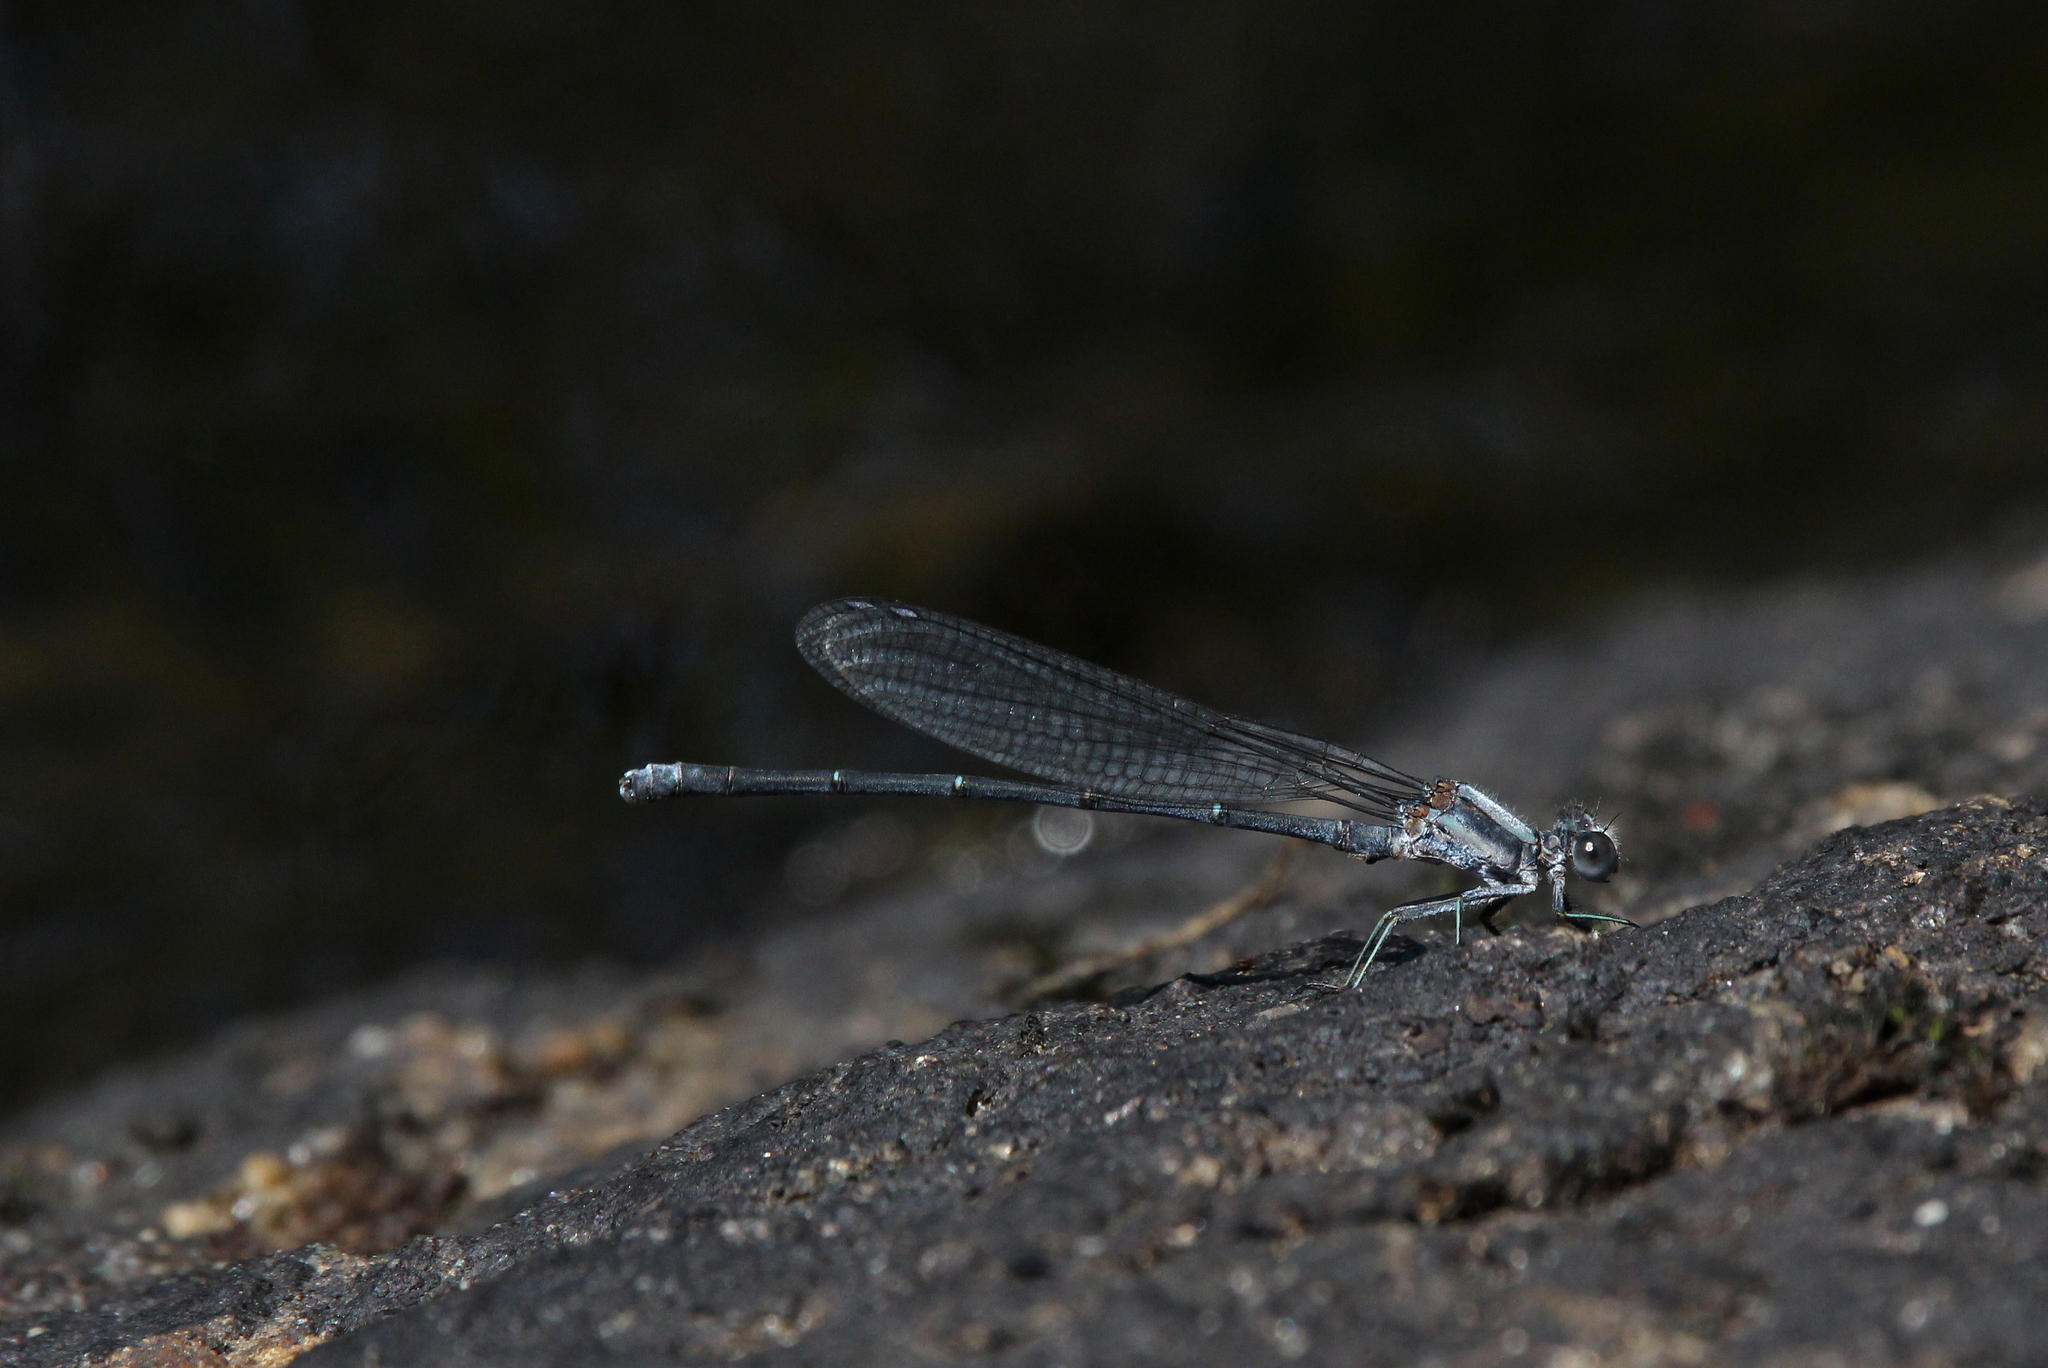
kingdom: Animalia
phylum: Arthropoda
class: Insecta
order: Odonata
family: Coenagrionidae
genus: Argia
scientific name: Argia moesta
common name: Powdered dancer
